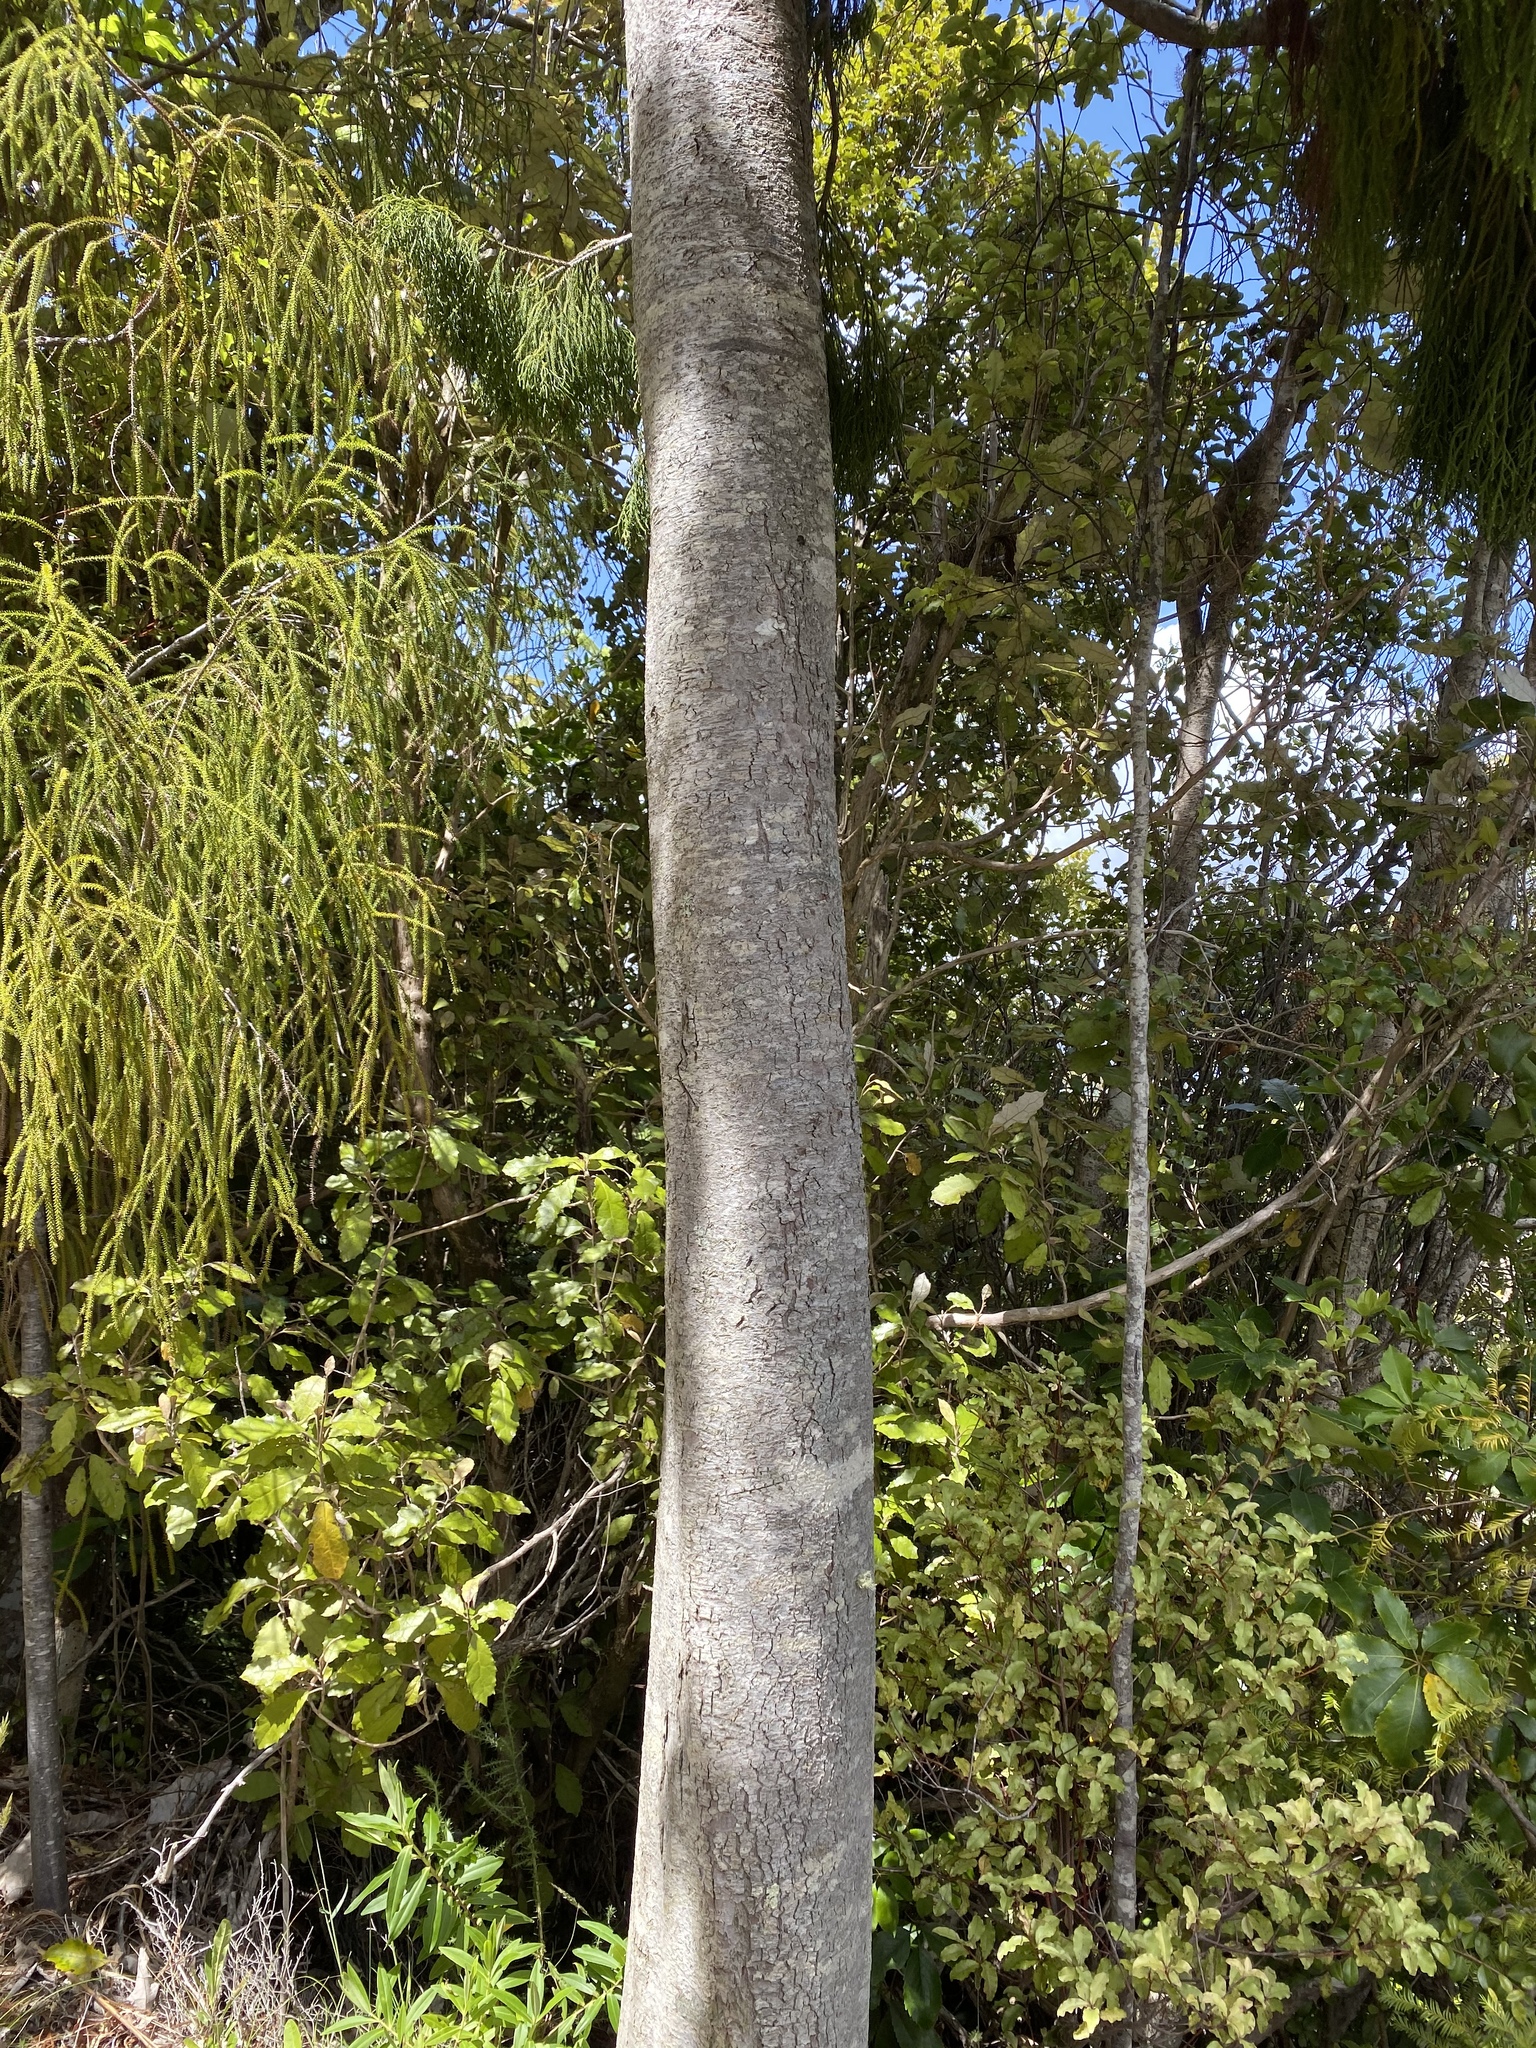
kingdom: Plantae
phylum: Tracheophyta
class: Pinopsida
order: Pinales
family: Podocarpaceae
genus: Dacrydium
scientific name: Dacrydium cupressinum
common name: Red pine
